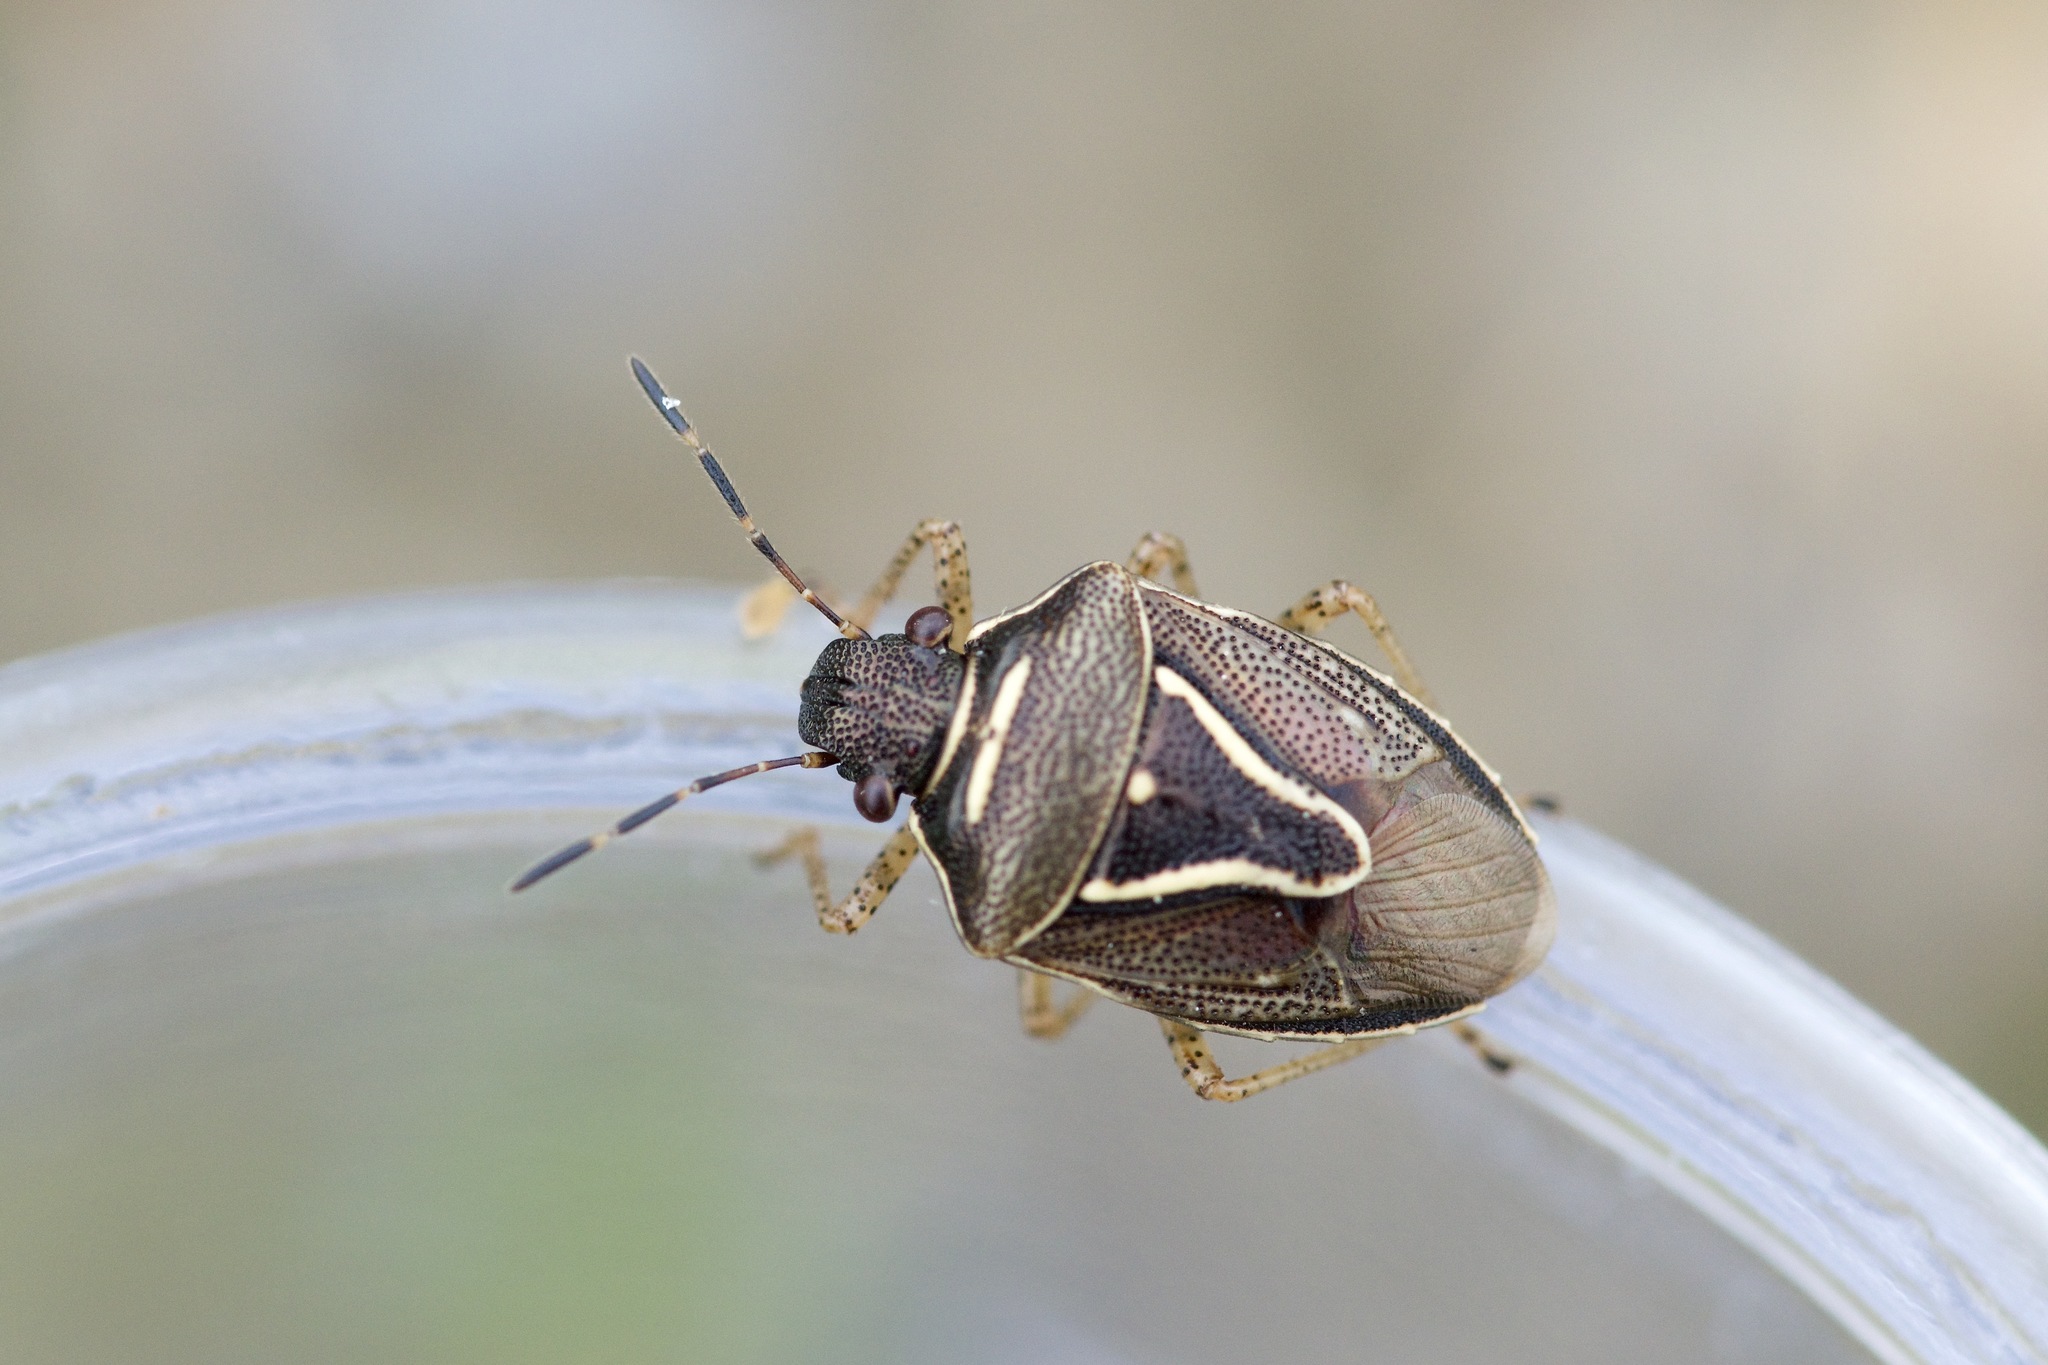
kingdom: Animalia
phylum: Arthropoda
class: Insecta
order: Hemiptera
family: Pentatomidae
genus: Mormidea
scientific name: Mormidea lugens
